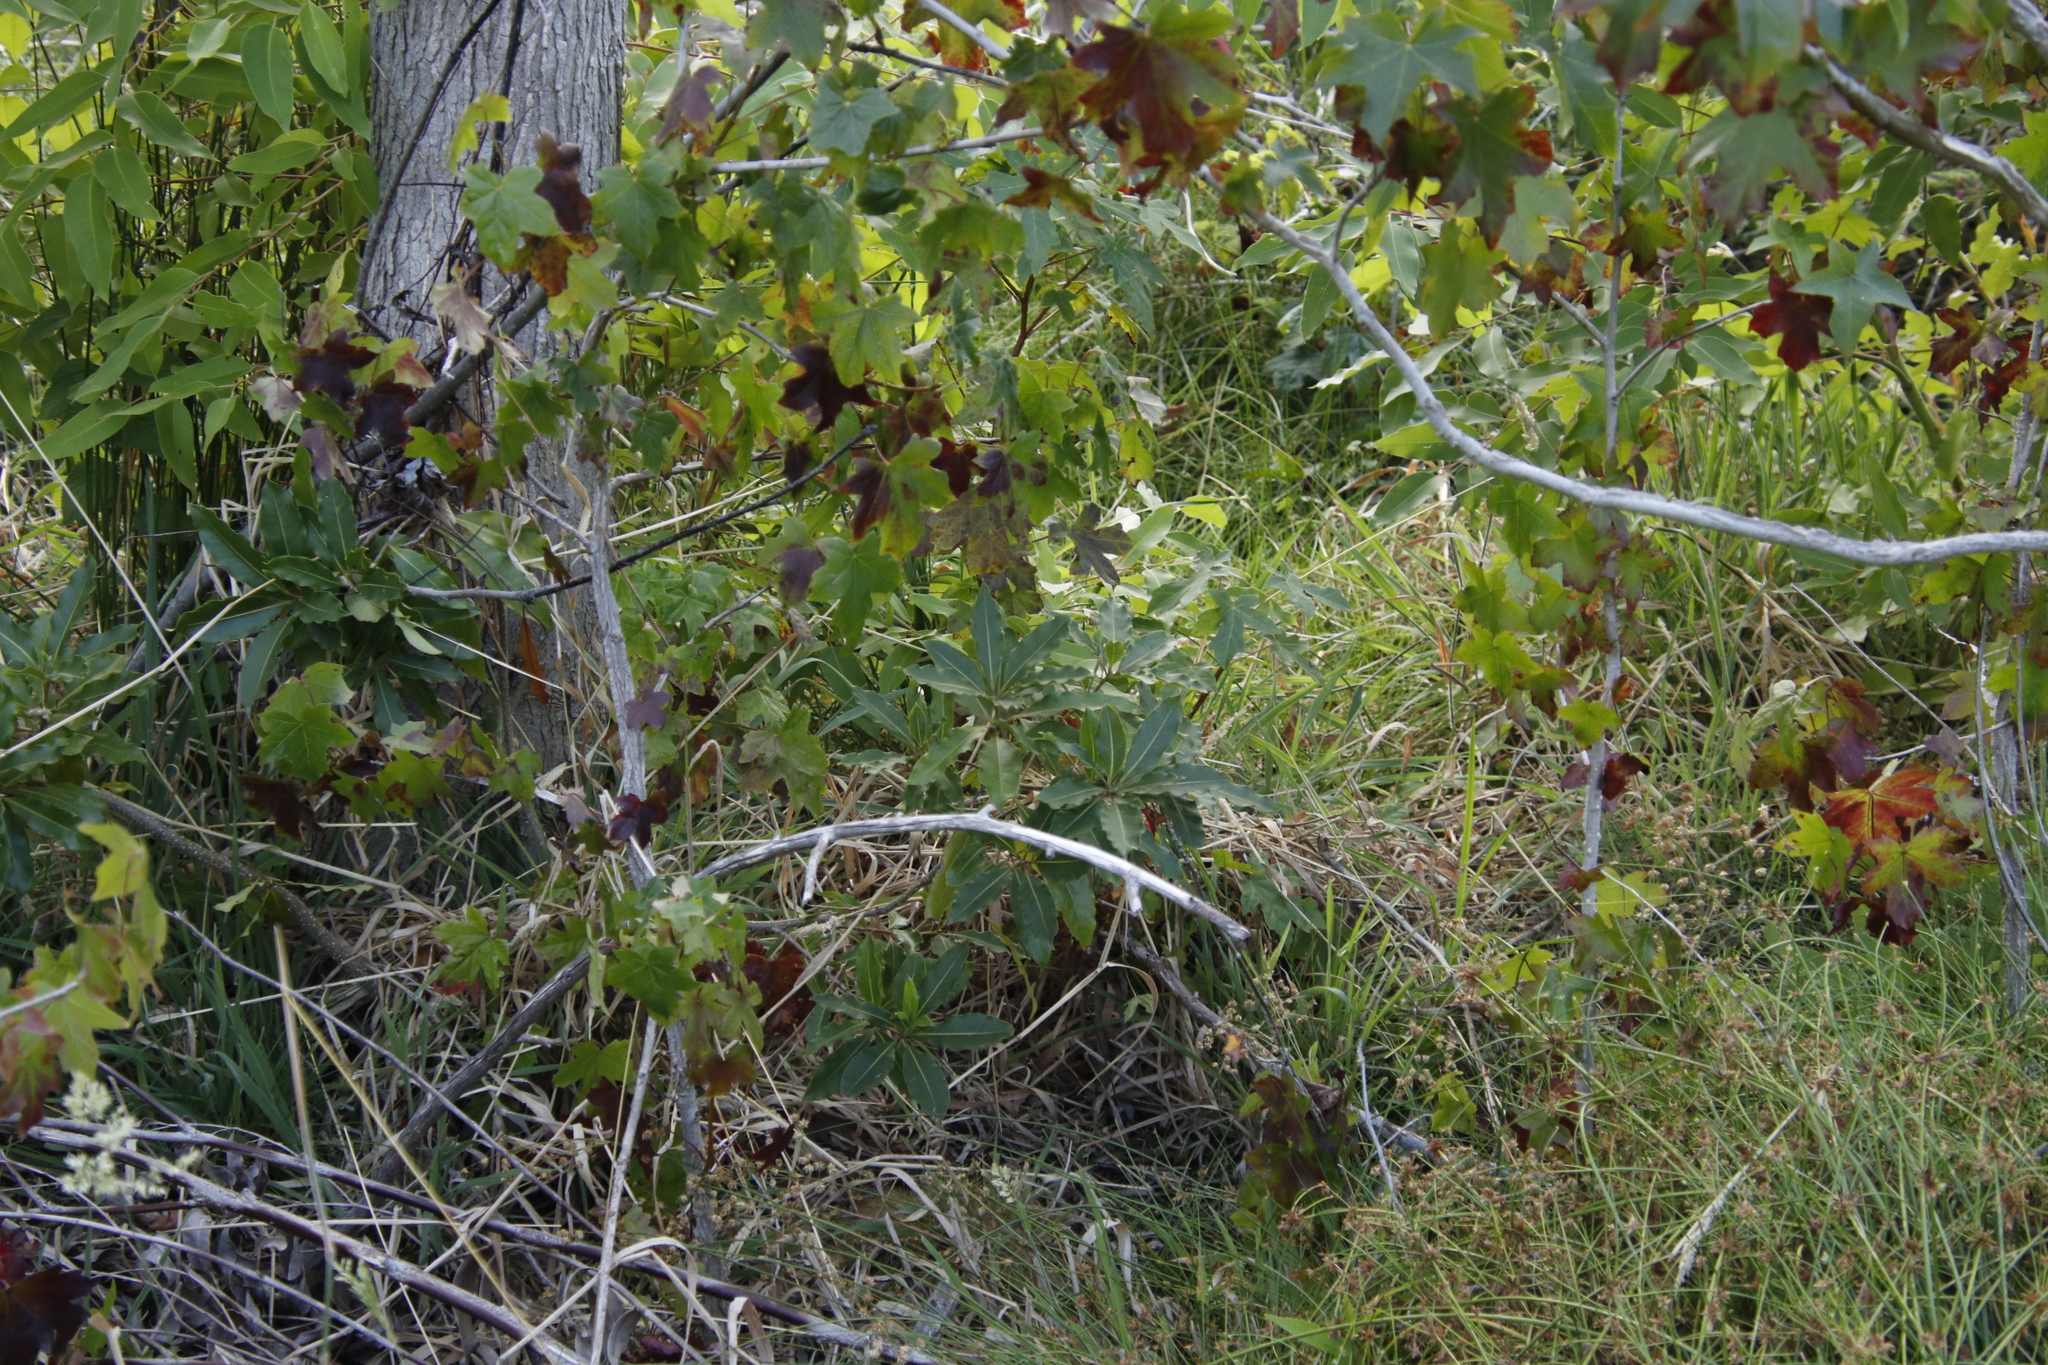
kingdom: Plantae
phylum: Tracheophyta
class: Magnoliopsida
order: Apiales
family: Pittosporaceae
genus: Pittosporum
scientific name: Pittosporum undulatum
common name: Australian cheesewood
